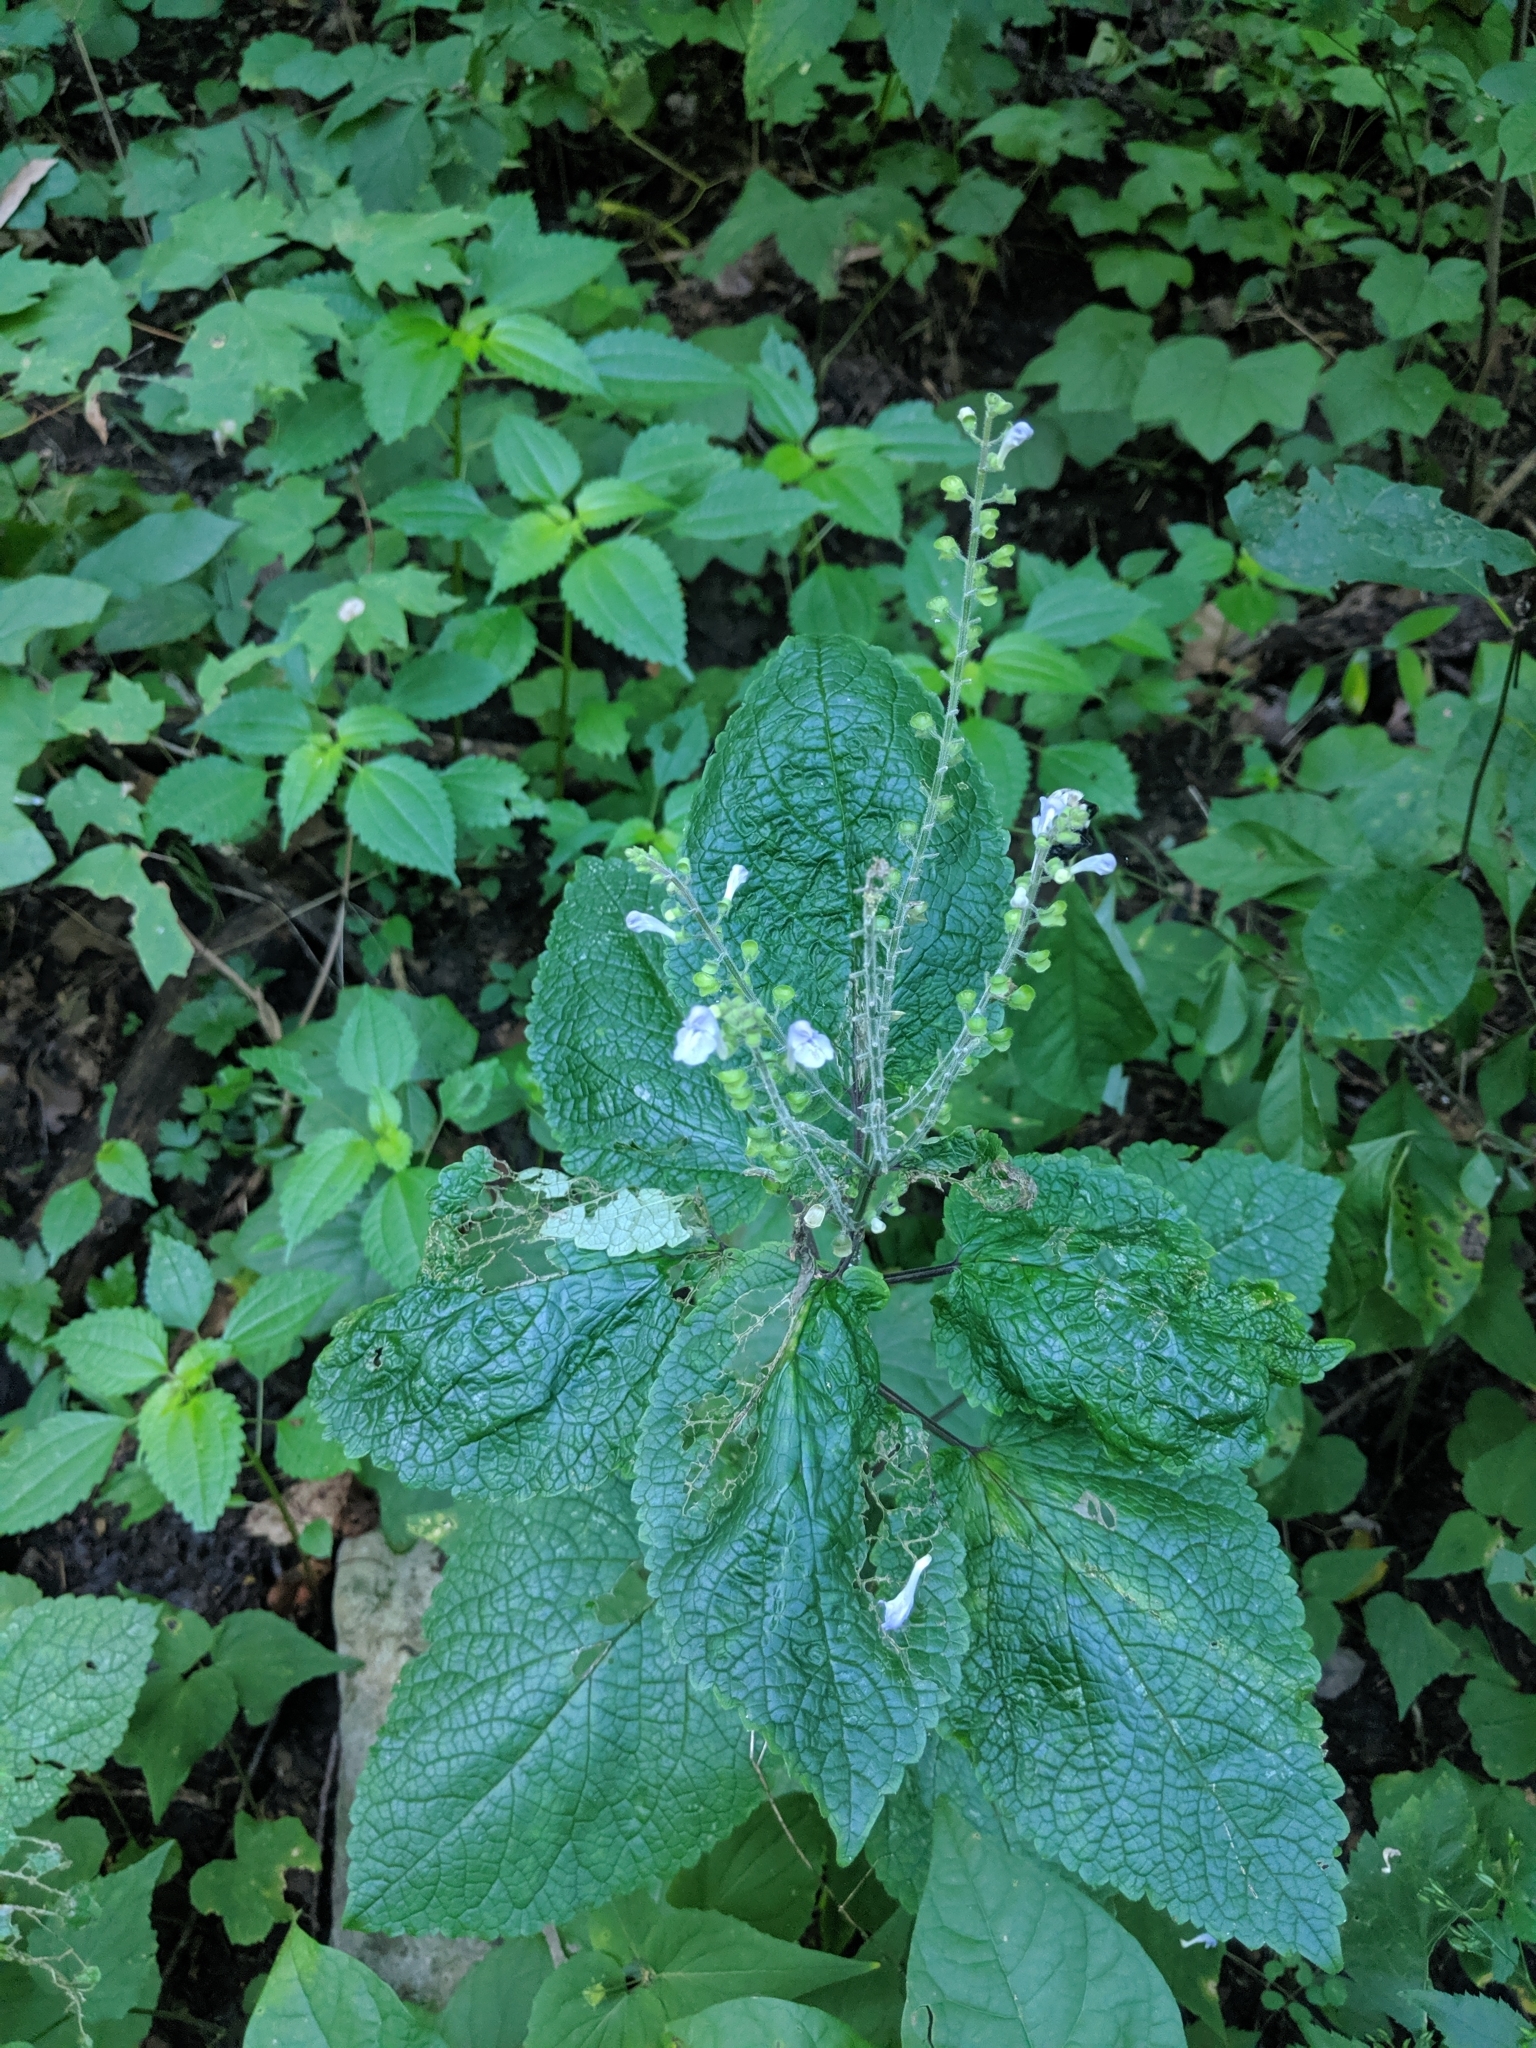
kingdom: Plantae
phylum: Tracheophyta
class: Magnoliopsida
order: Lamiales
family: Lamiaceae
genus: Scutellaria
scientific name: Scutellaria ovata
